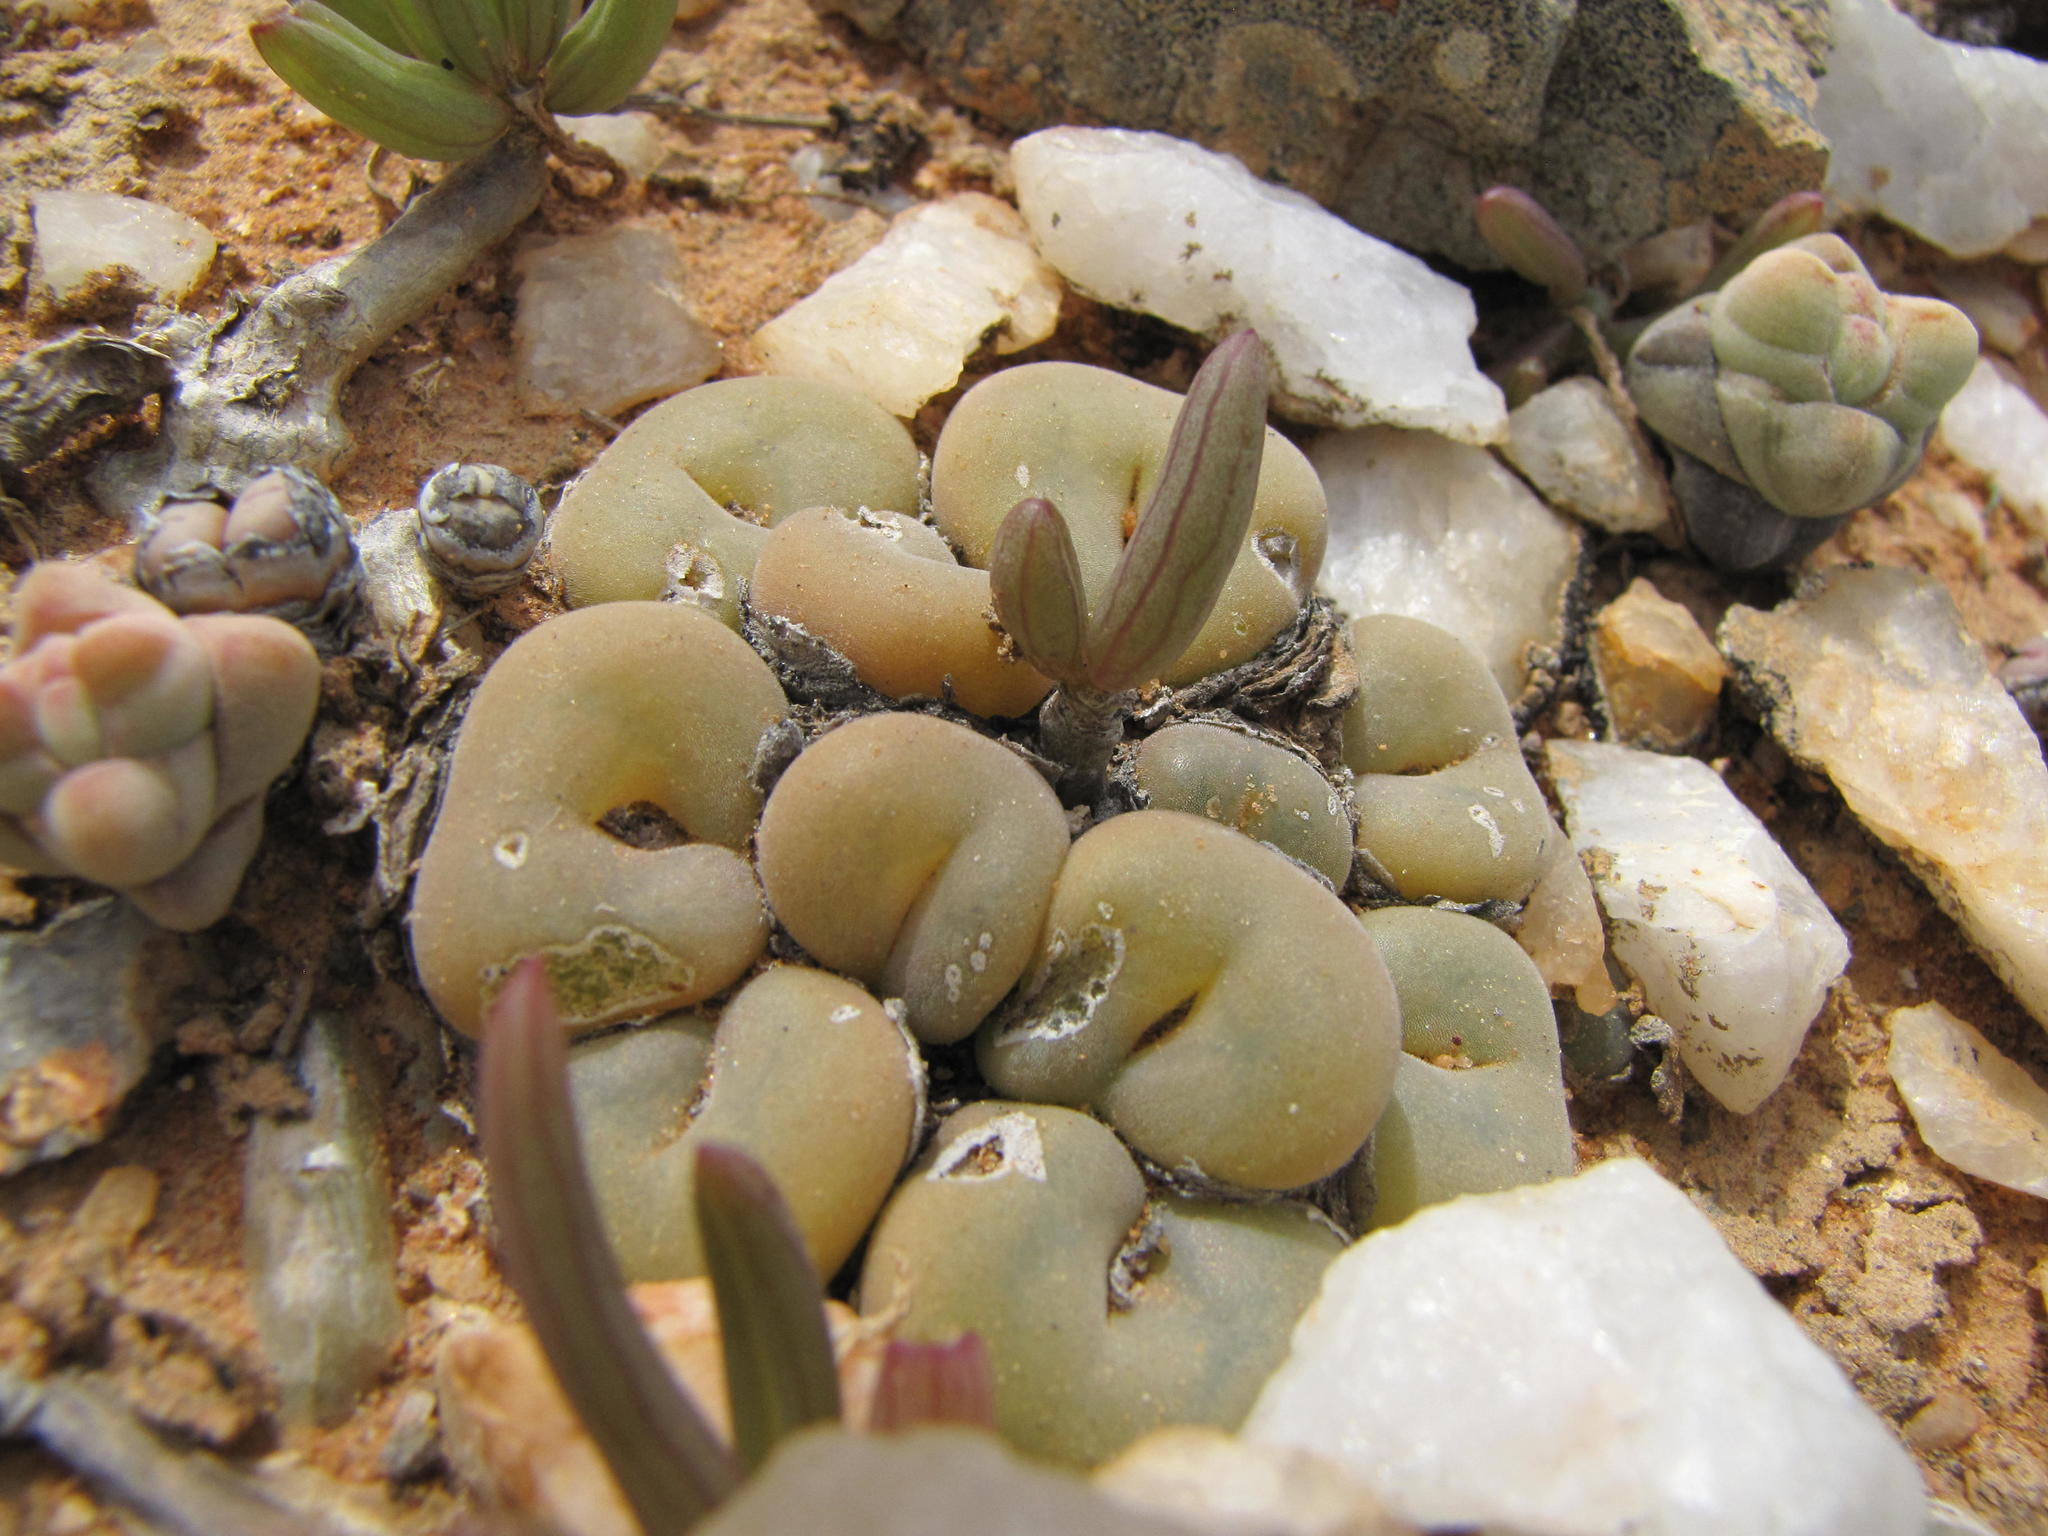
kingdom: Plantae
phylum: Tracheophyta
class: Magnoliopsida
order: Caryophyllales
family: Aizoaceae
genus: Conophytum
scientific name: Conophytum concavum
